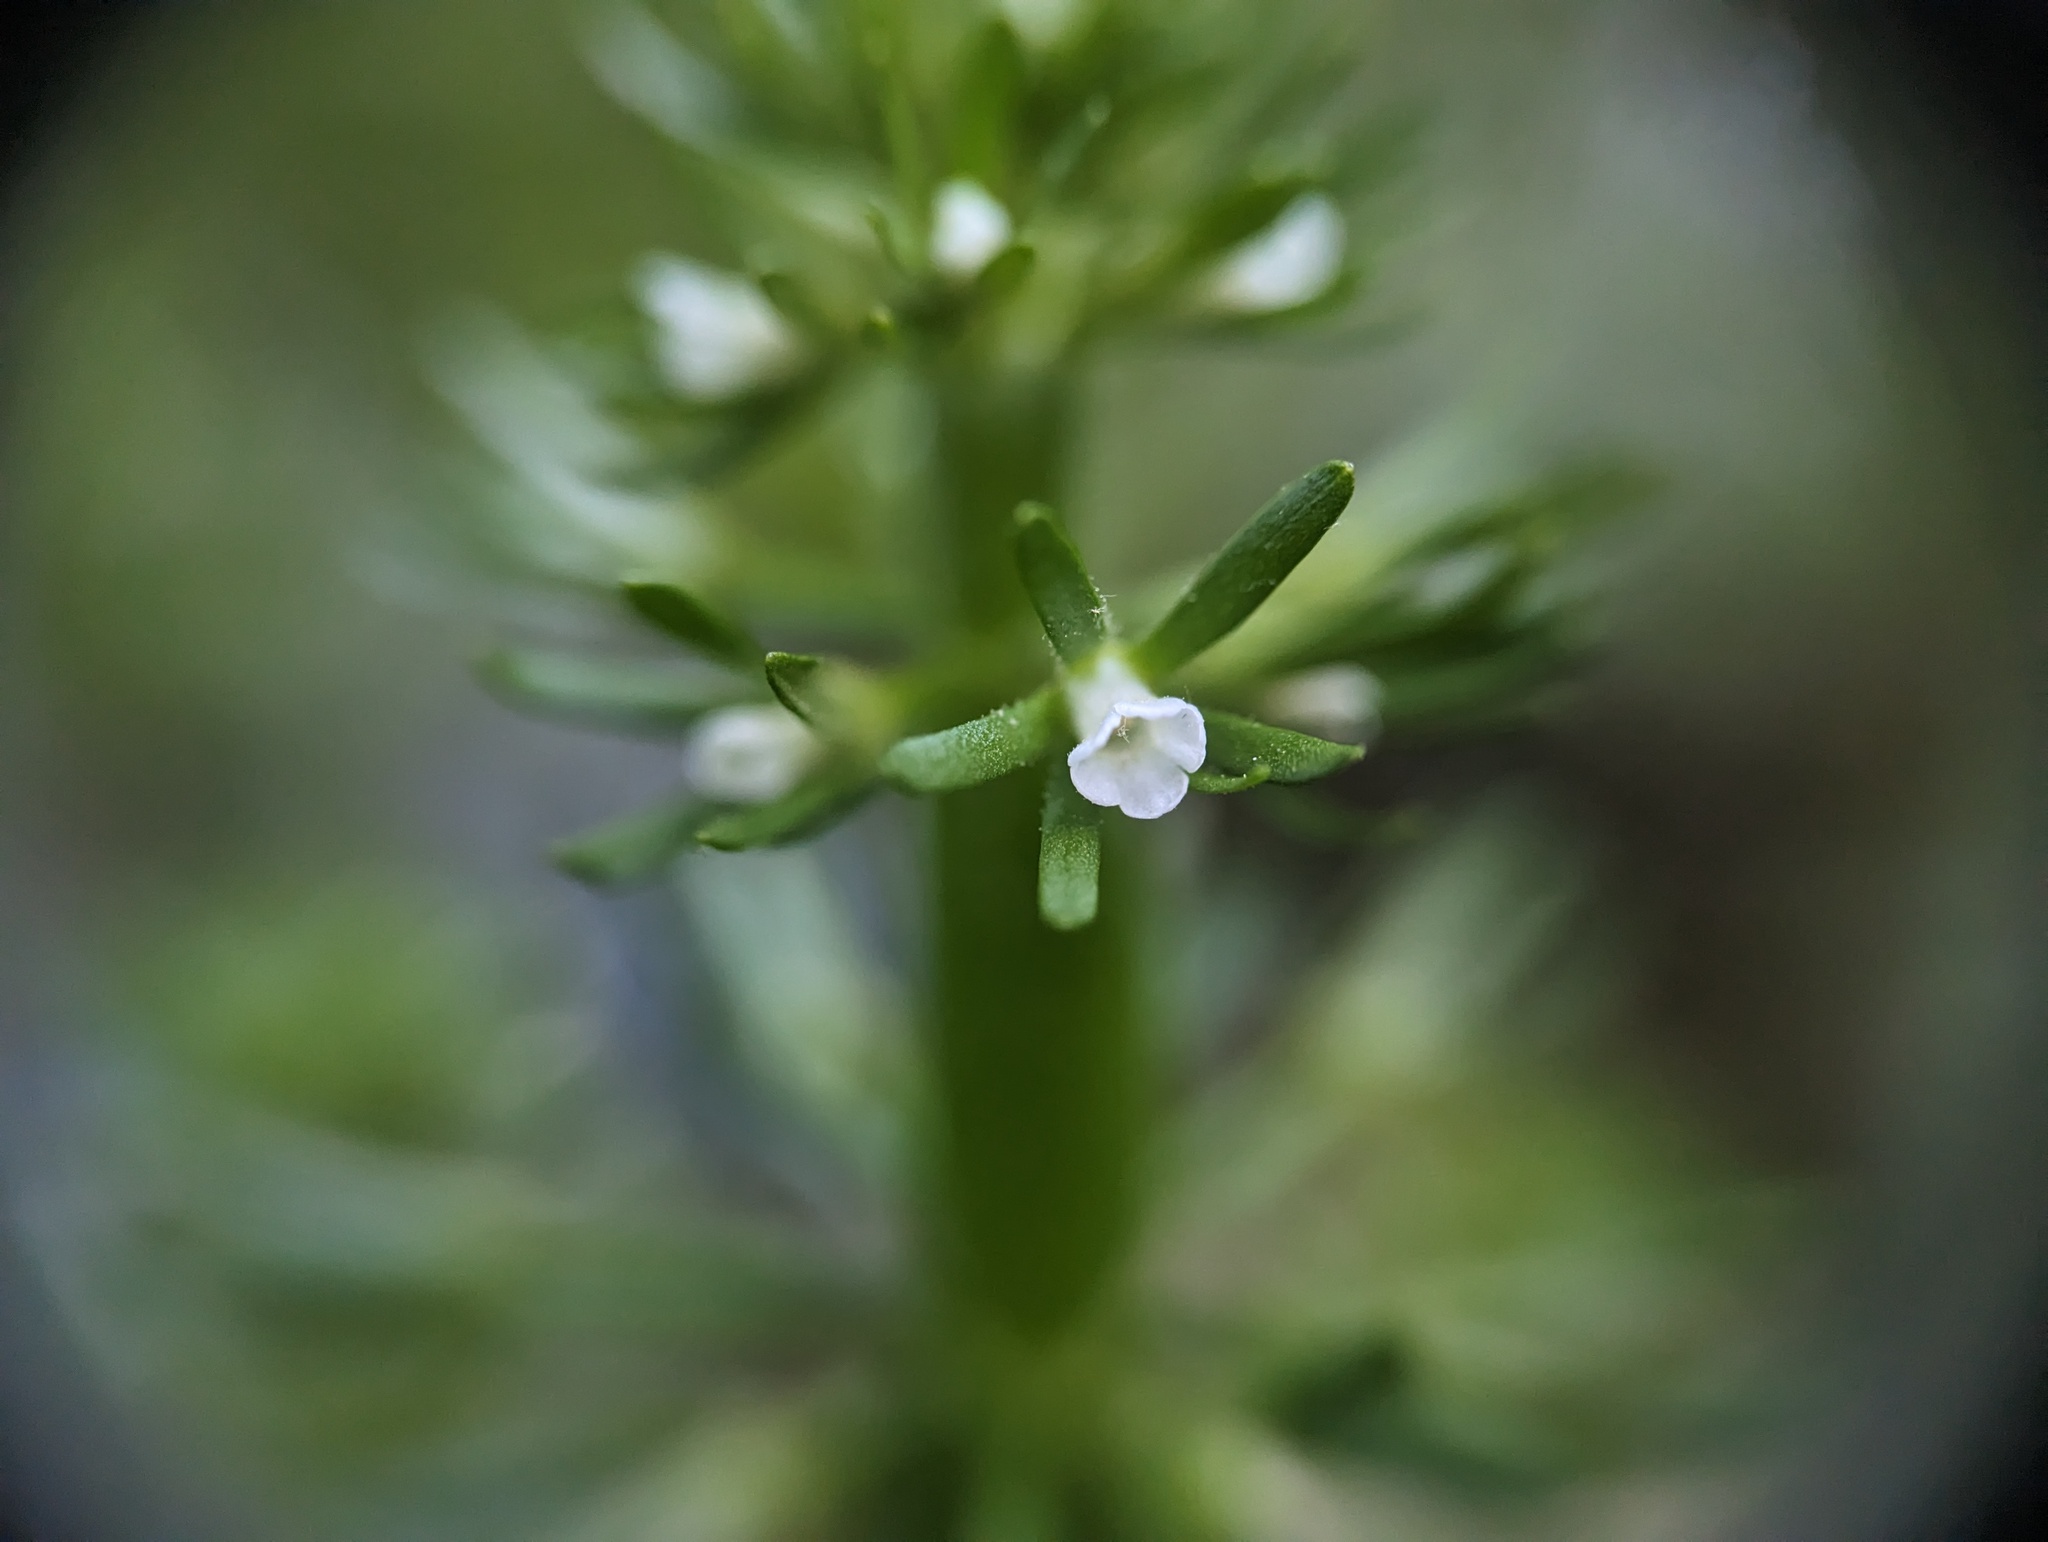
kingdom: Plantae
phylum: Tracheophyta
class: Magnoliopsida
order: Ericales
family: Primulaceae
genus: Hottonia
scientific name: Hottonia inflata
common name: American featherfoil
